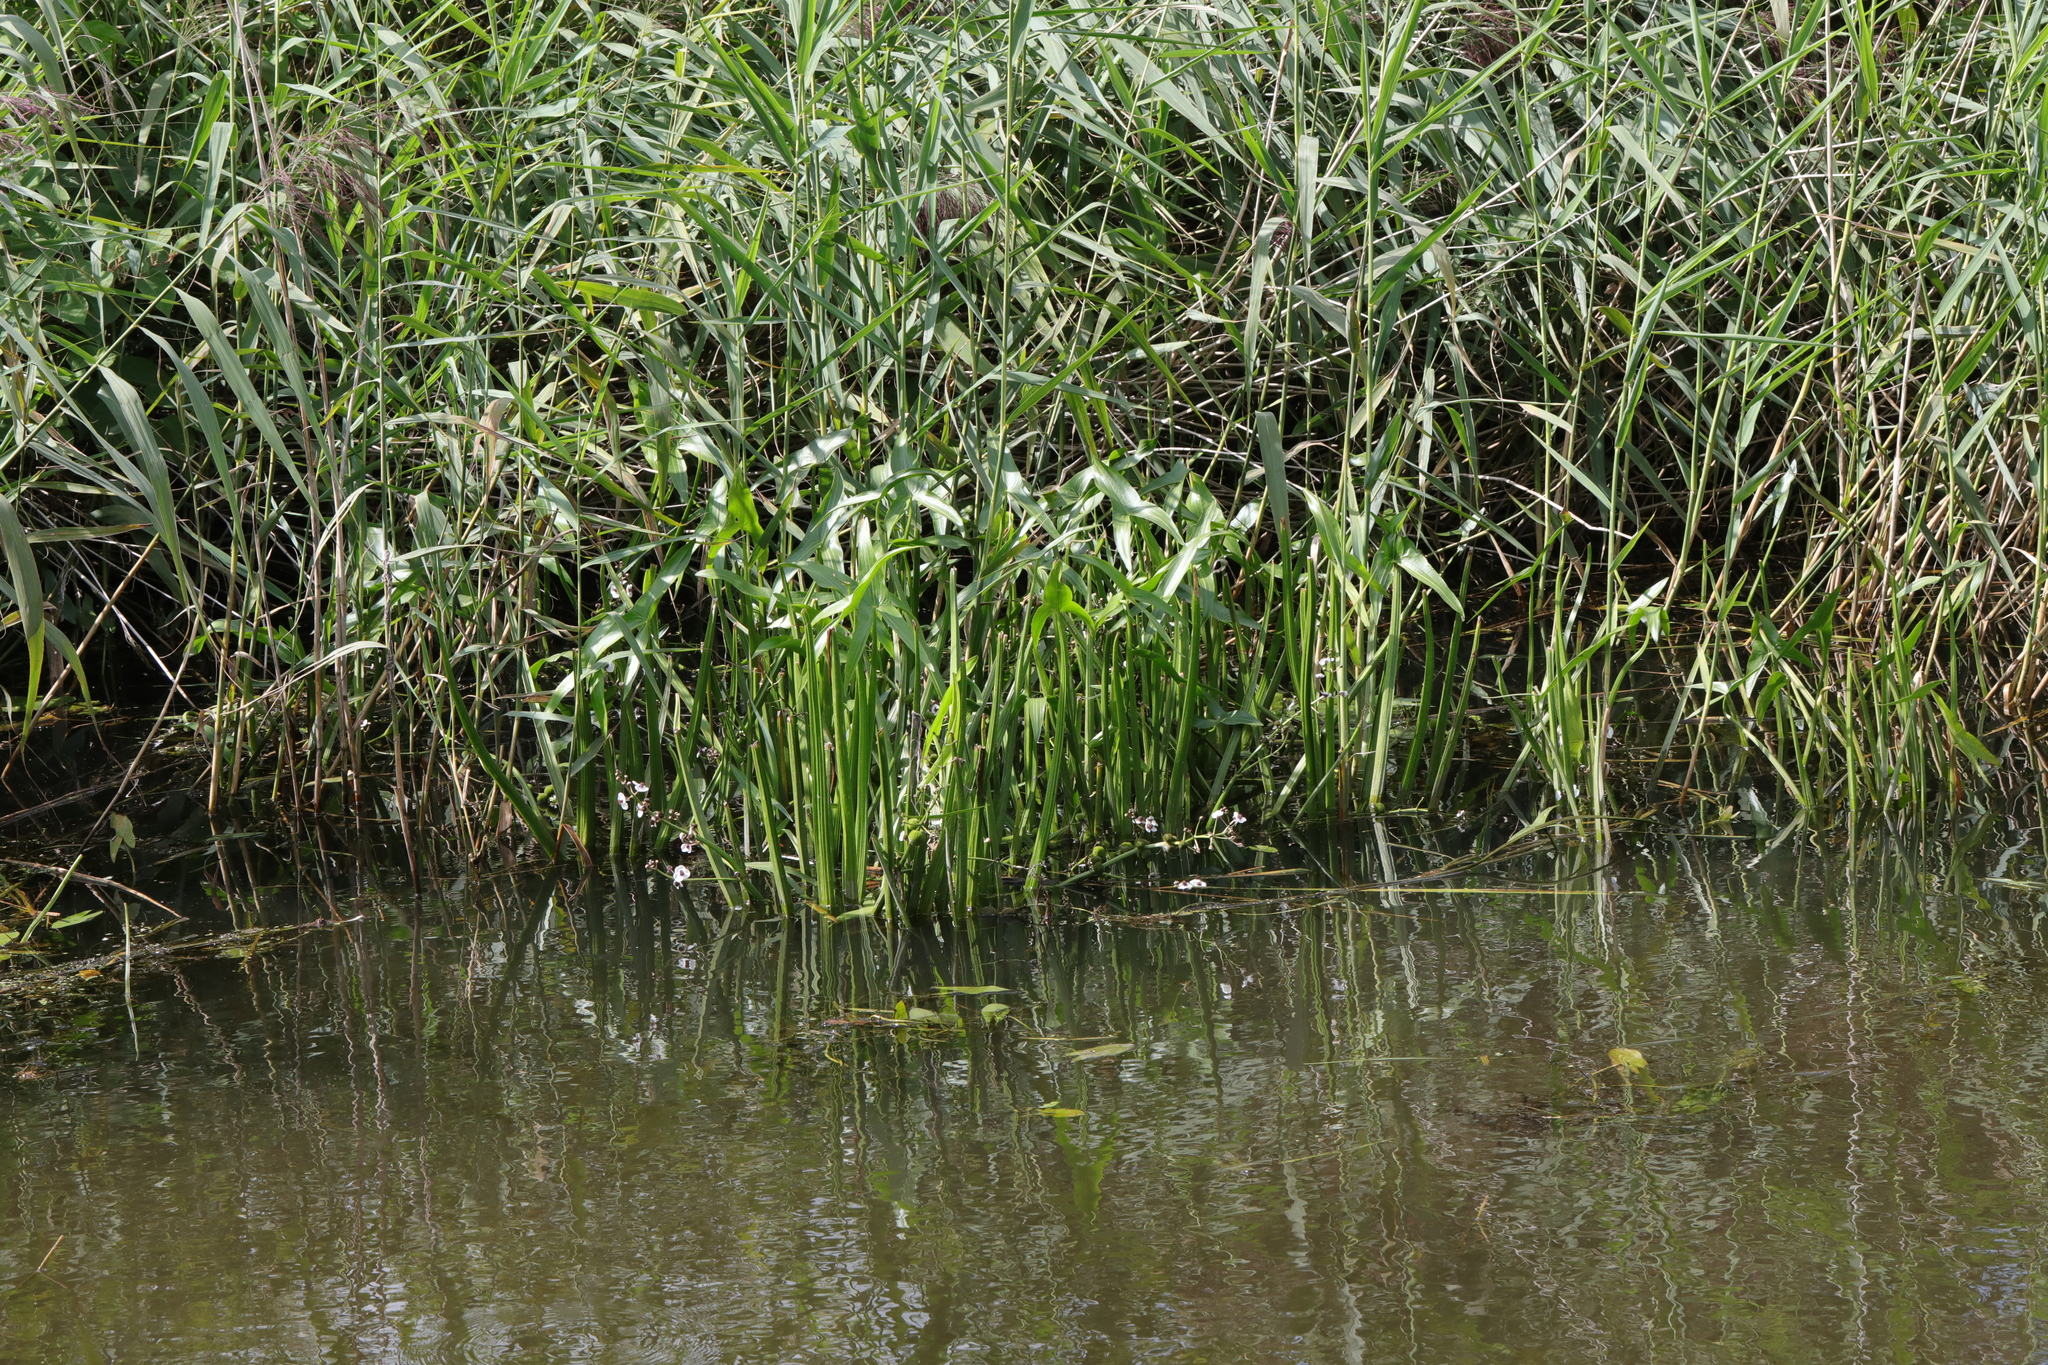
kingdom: Plantae
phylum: Tracheophyta
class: Liliopsida
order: Alismatales
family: Alismataceae
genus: Sagittaria
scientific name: Sagittaria sagittifolia
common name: Arrowhead
